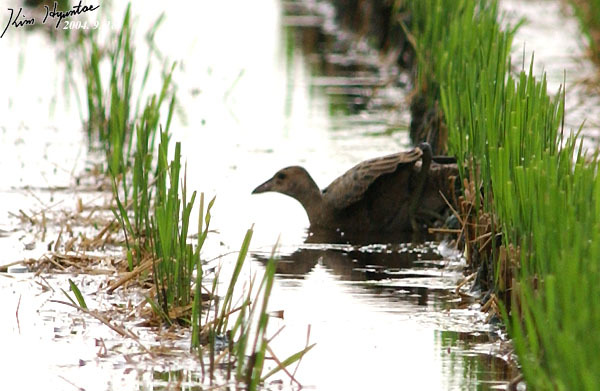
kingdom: Animalia
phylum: Chordata
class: Aves
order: Gruiformes
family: Rallidae
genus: Gallicrex
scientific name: Gallicrex cinerea
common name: Watercock
